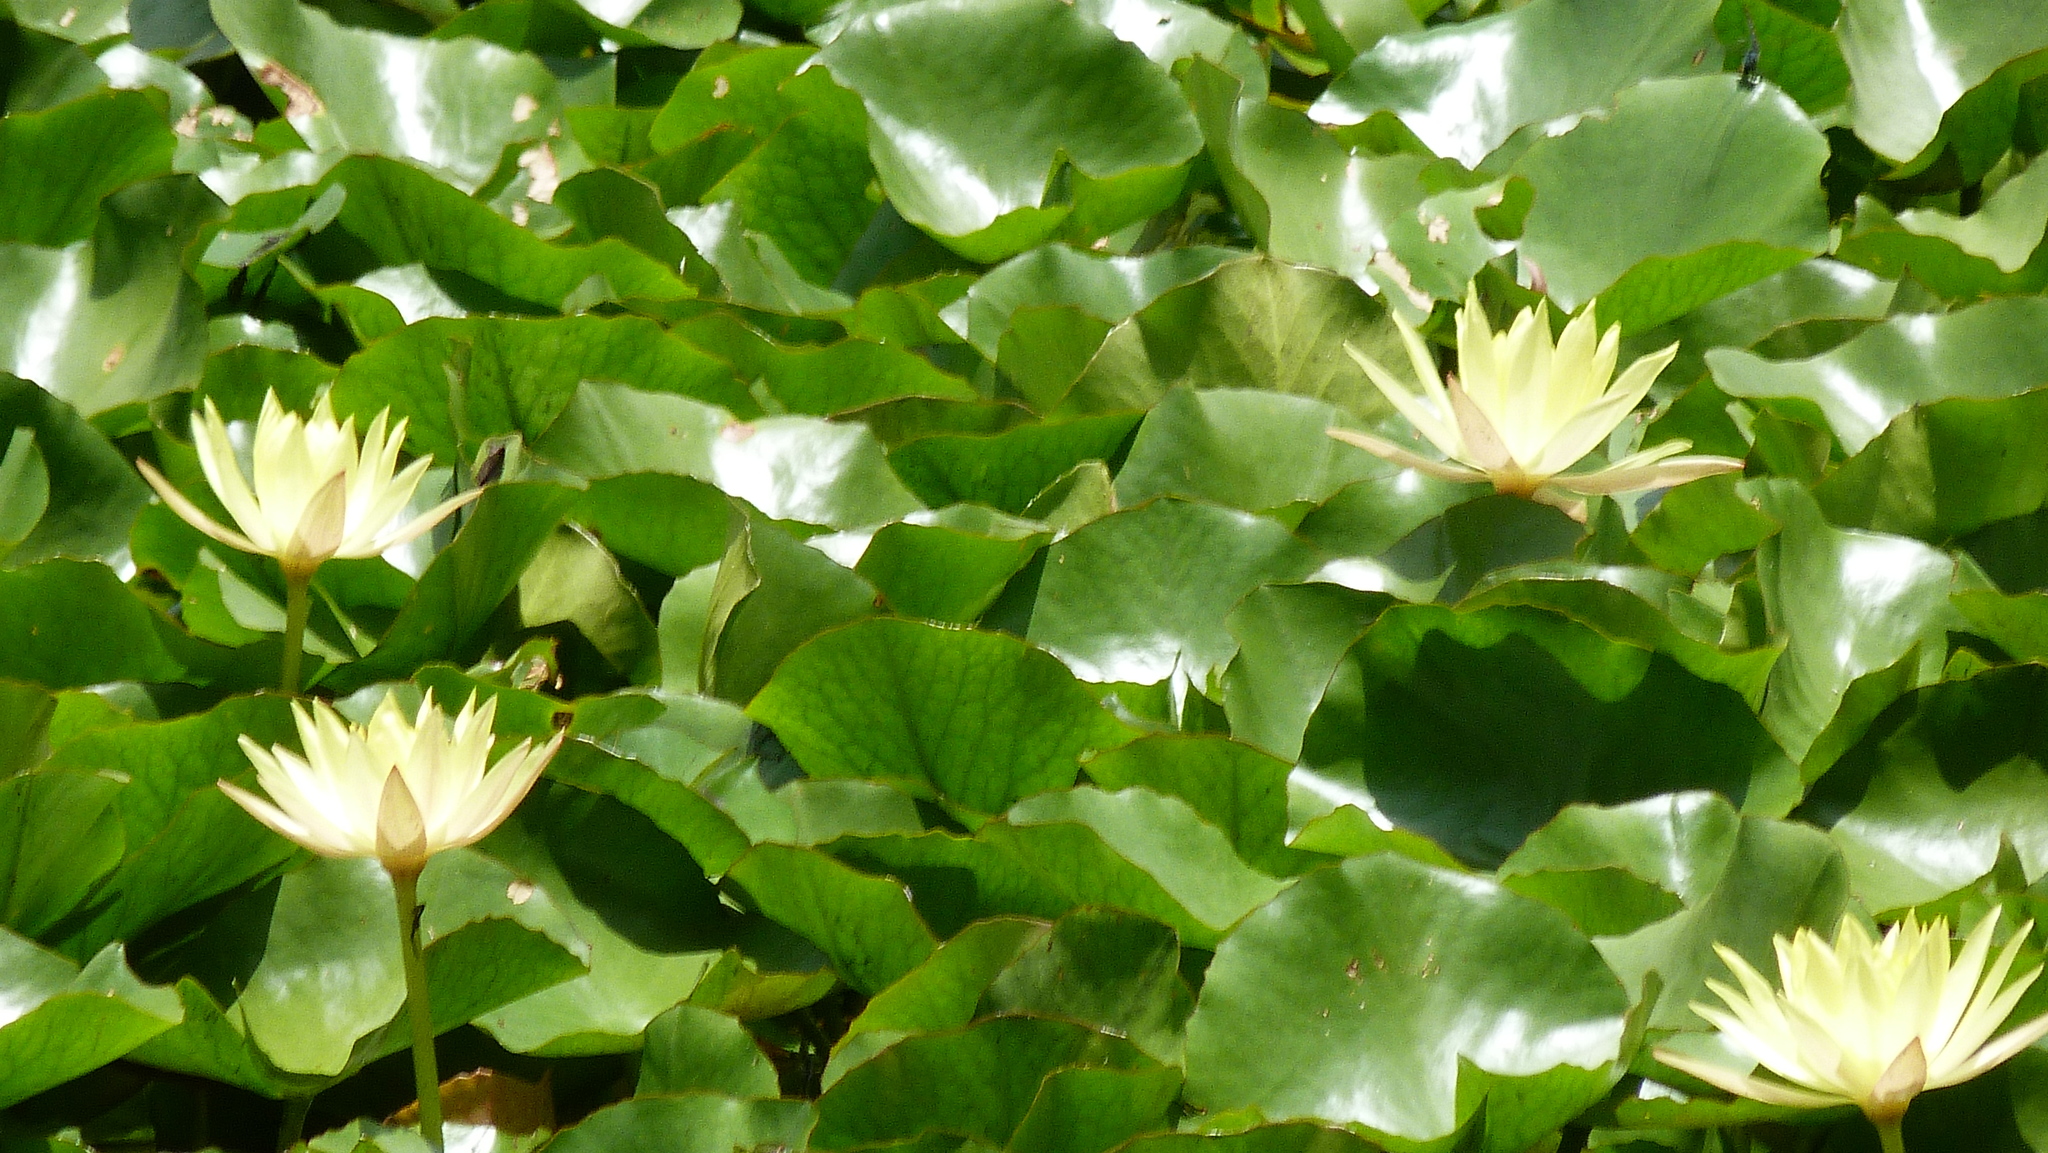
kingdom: Plantae
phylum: Tracheophyta
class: Magnoliopsida
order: Nymphaeales
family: Nymphaeaceae
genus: Nymphaea
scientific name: Nymphaea mexicana
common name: Banana water-lily
